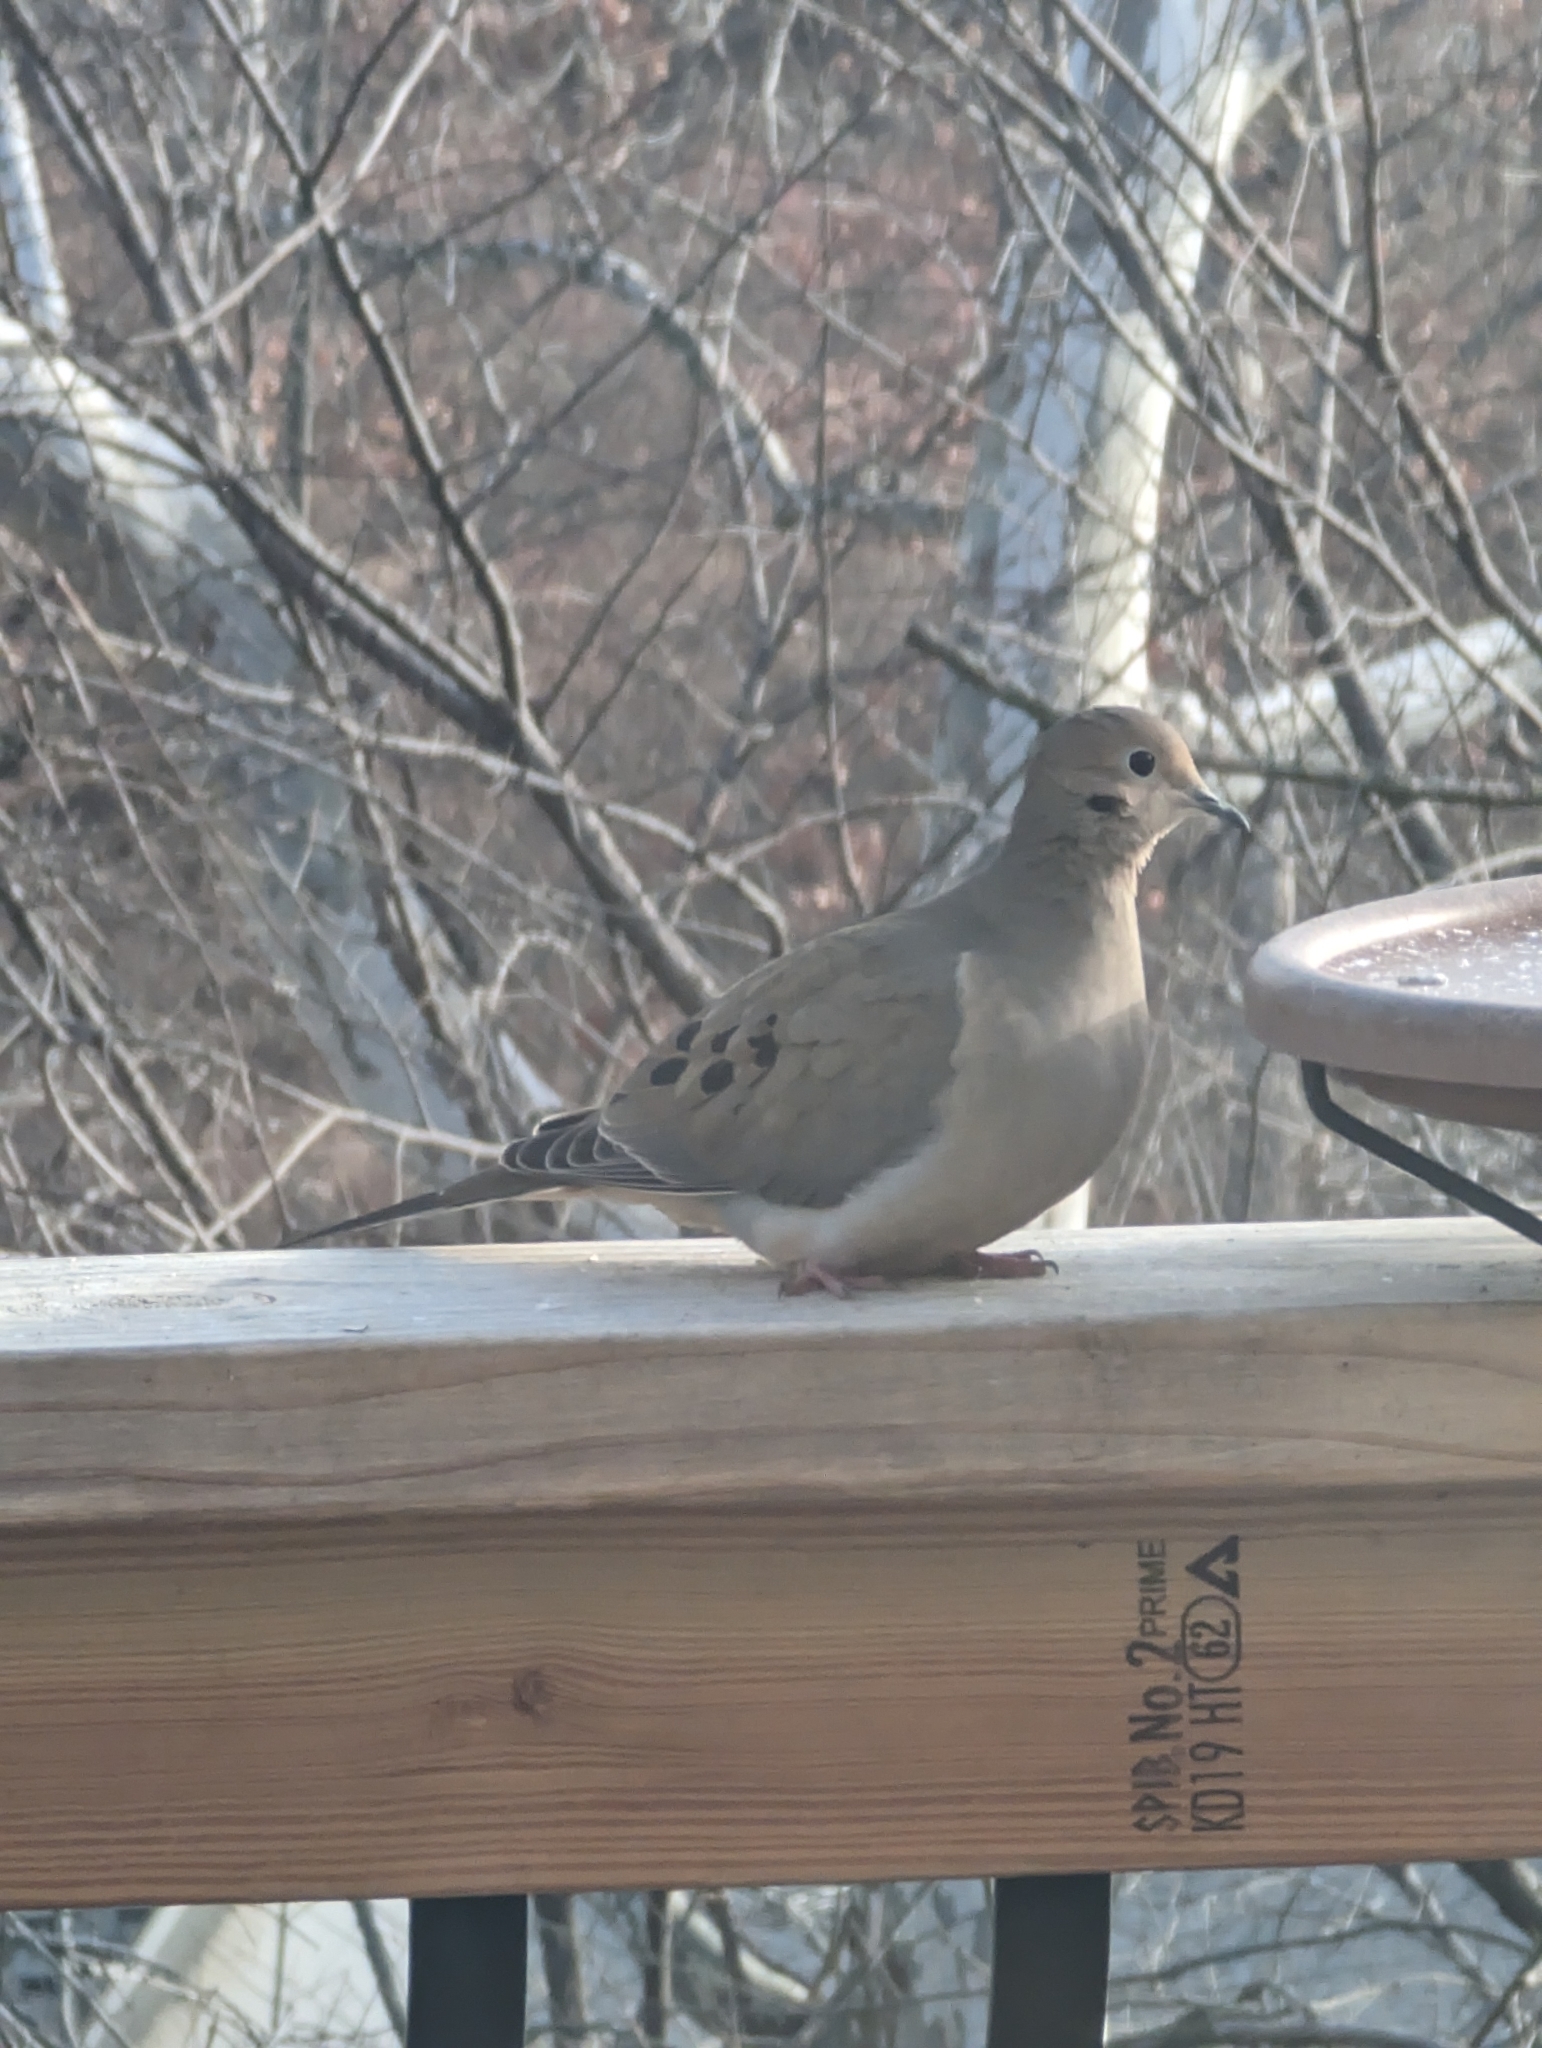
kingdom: Animalia
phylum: Chordata
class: Aves
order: Columbiformes
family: Columbidae
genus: Zenaida
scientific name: Zenaida macroura
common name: Mourning dove
